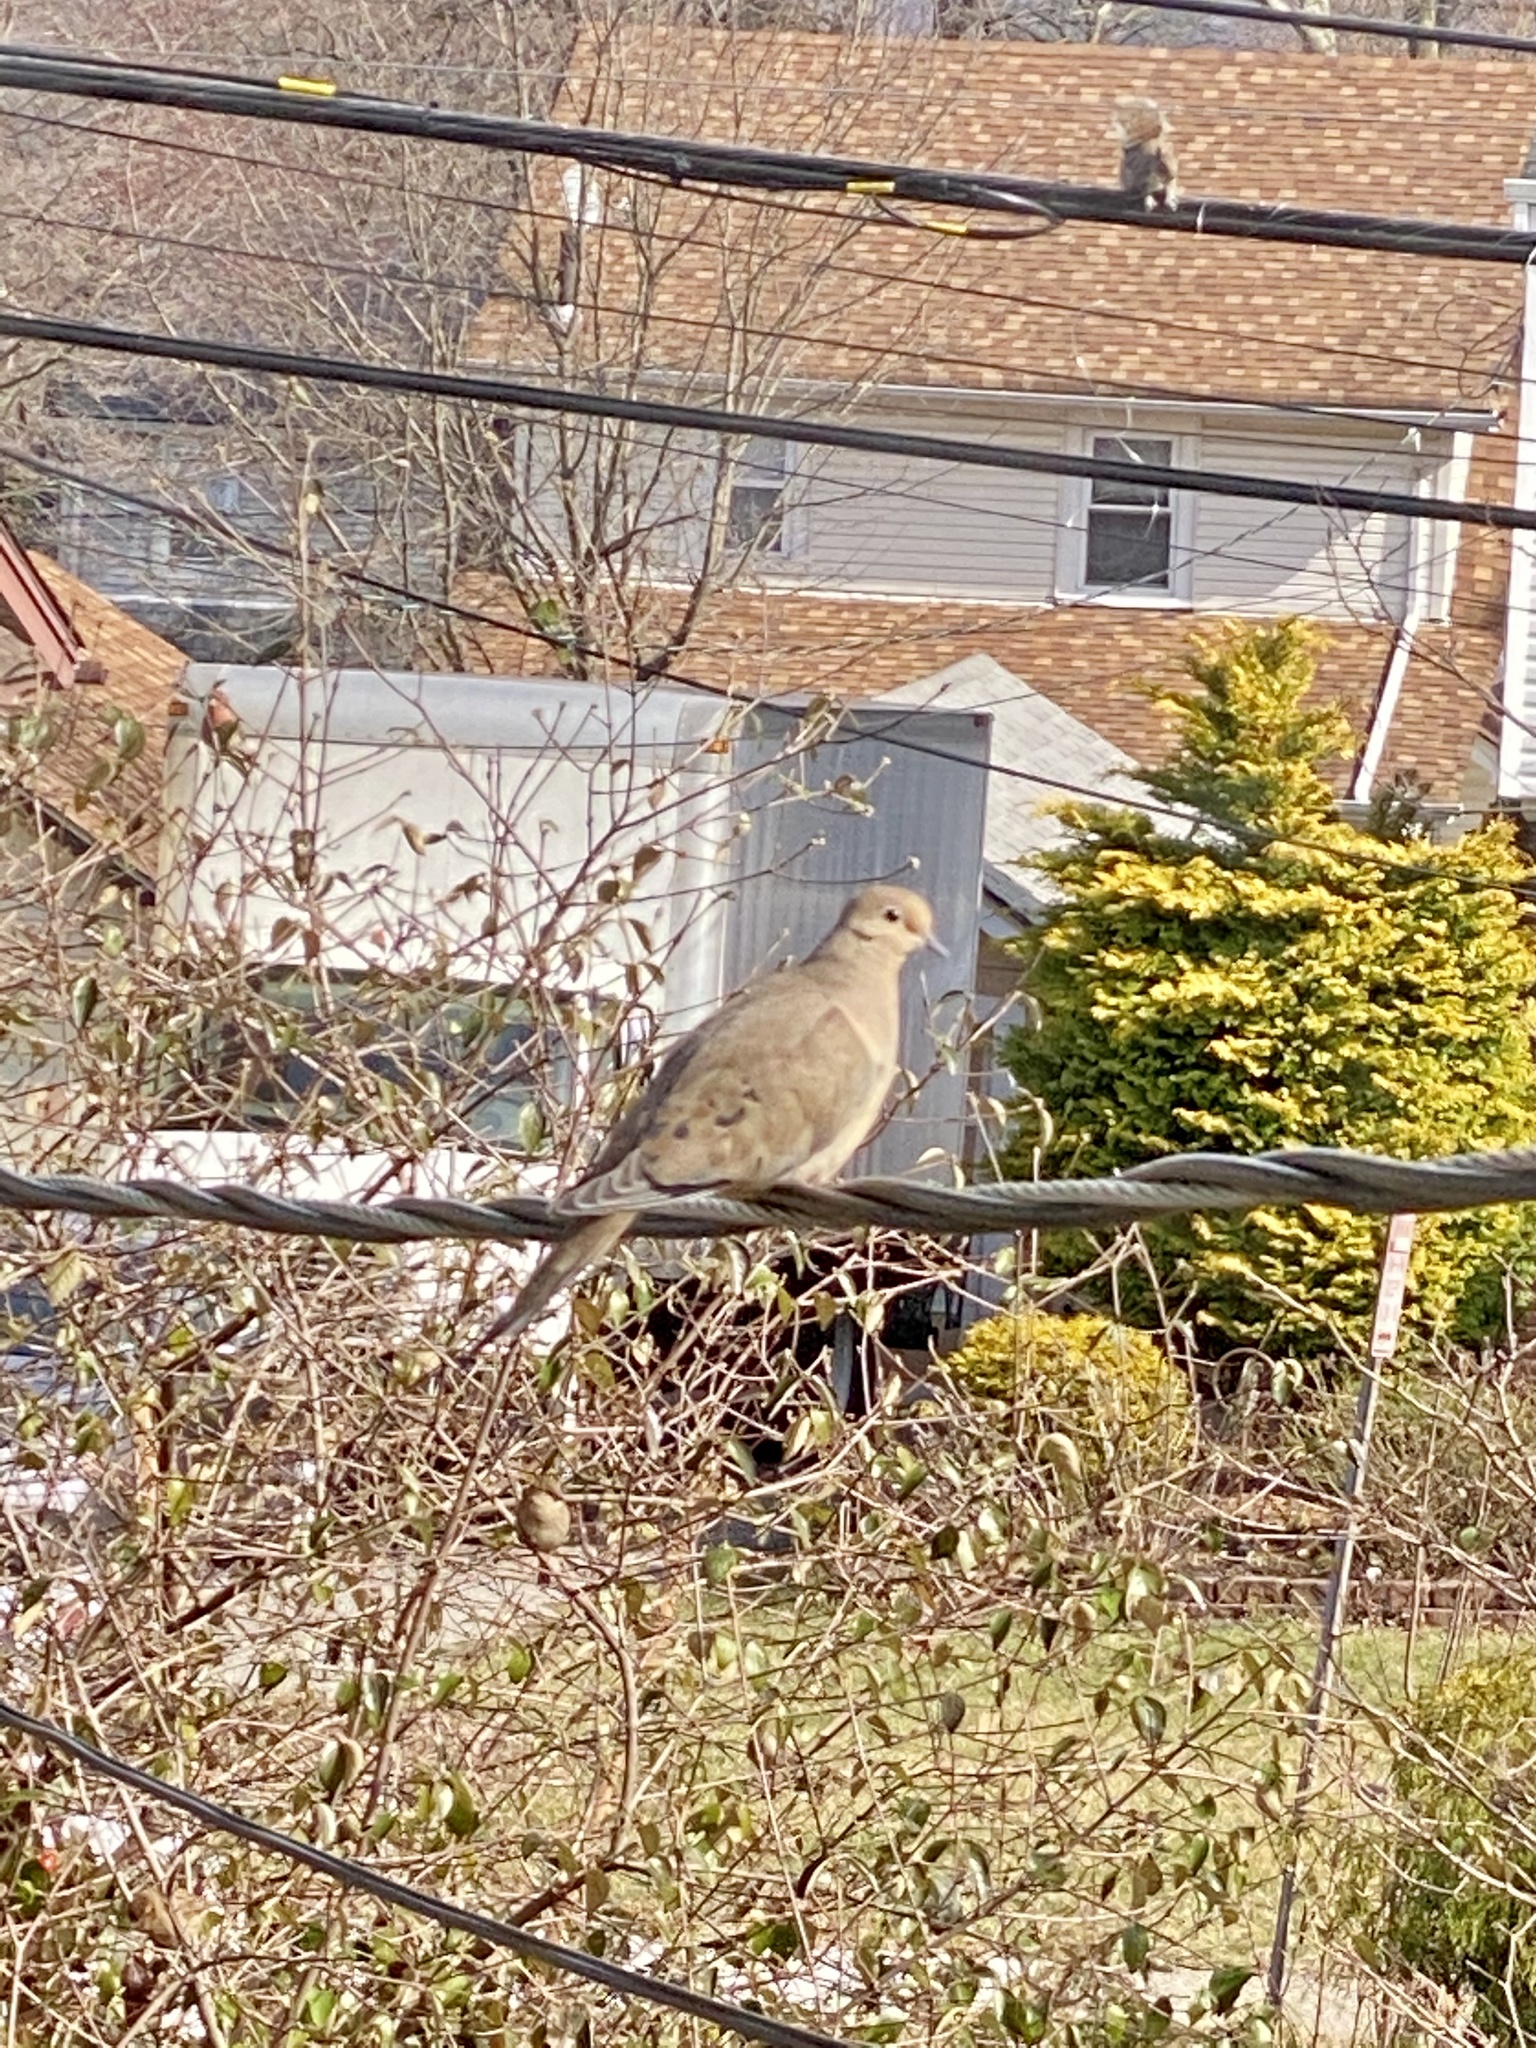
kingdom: Animalia
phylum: Chordata
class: Aves
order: Columbiformes
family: Columbidae
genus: Zenaida
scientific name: Zenaida macroura
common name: Mourning dove
